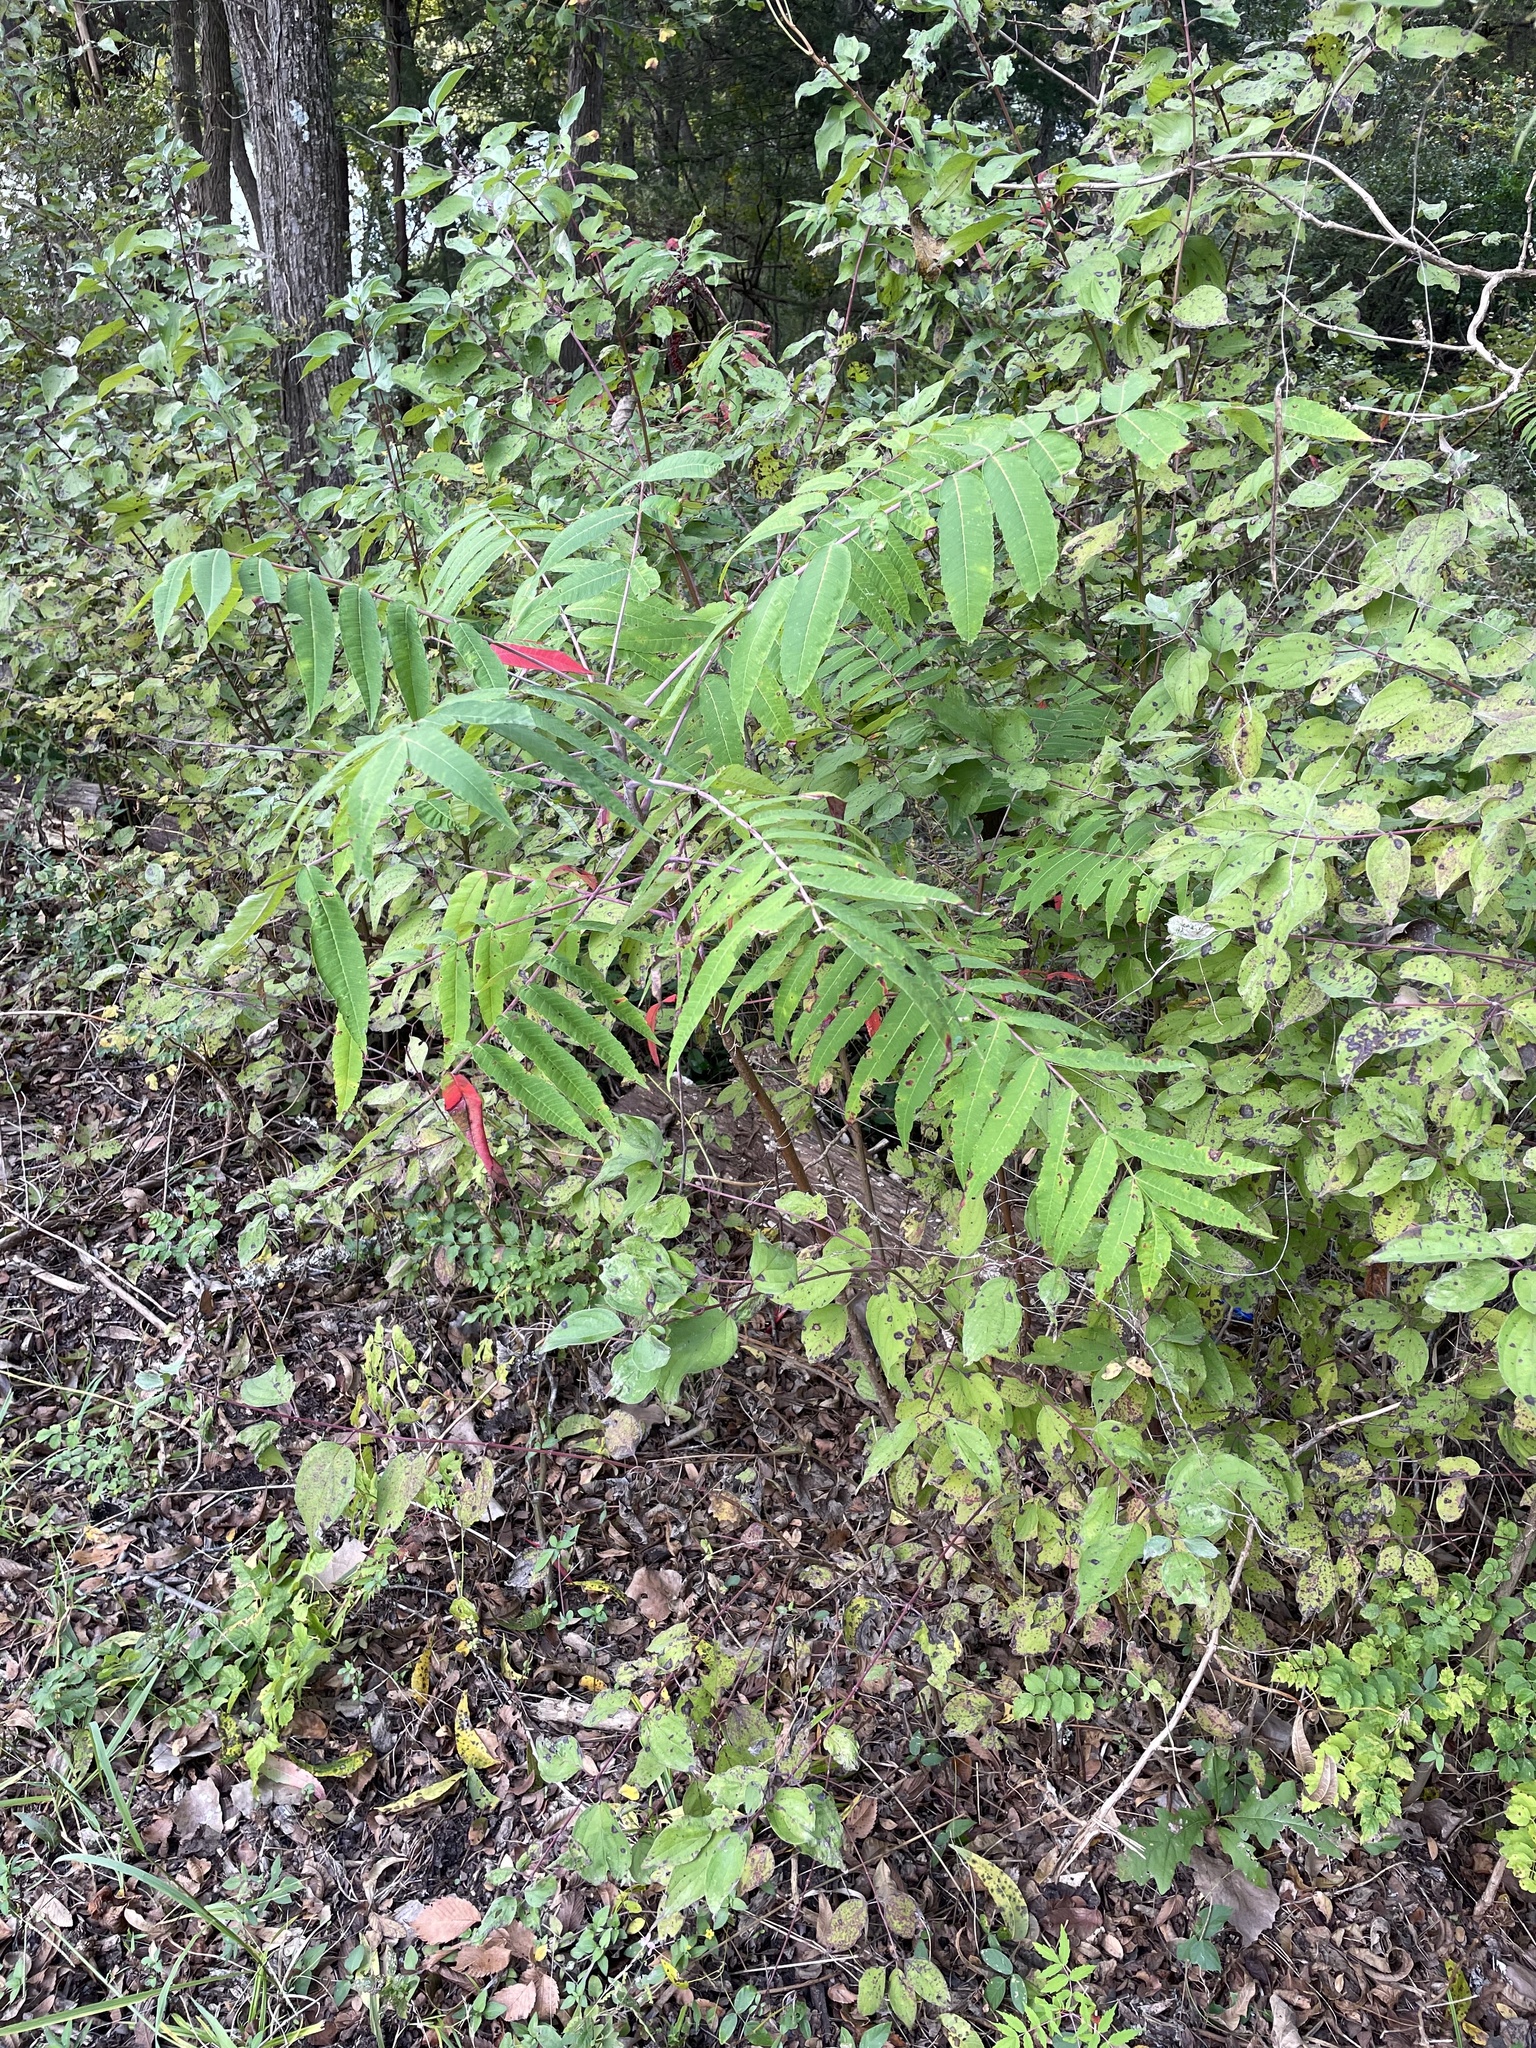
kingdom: Plantae
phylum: Tracheophyta
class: Magnoliopsida
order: Sapindales
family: Anacardiaceae
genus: Rhus
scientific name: Rhus glabra
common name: Scarlet sumac
